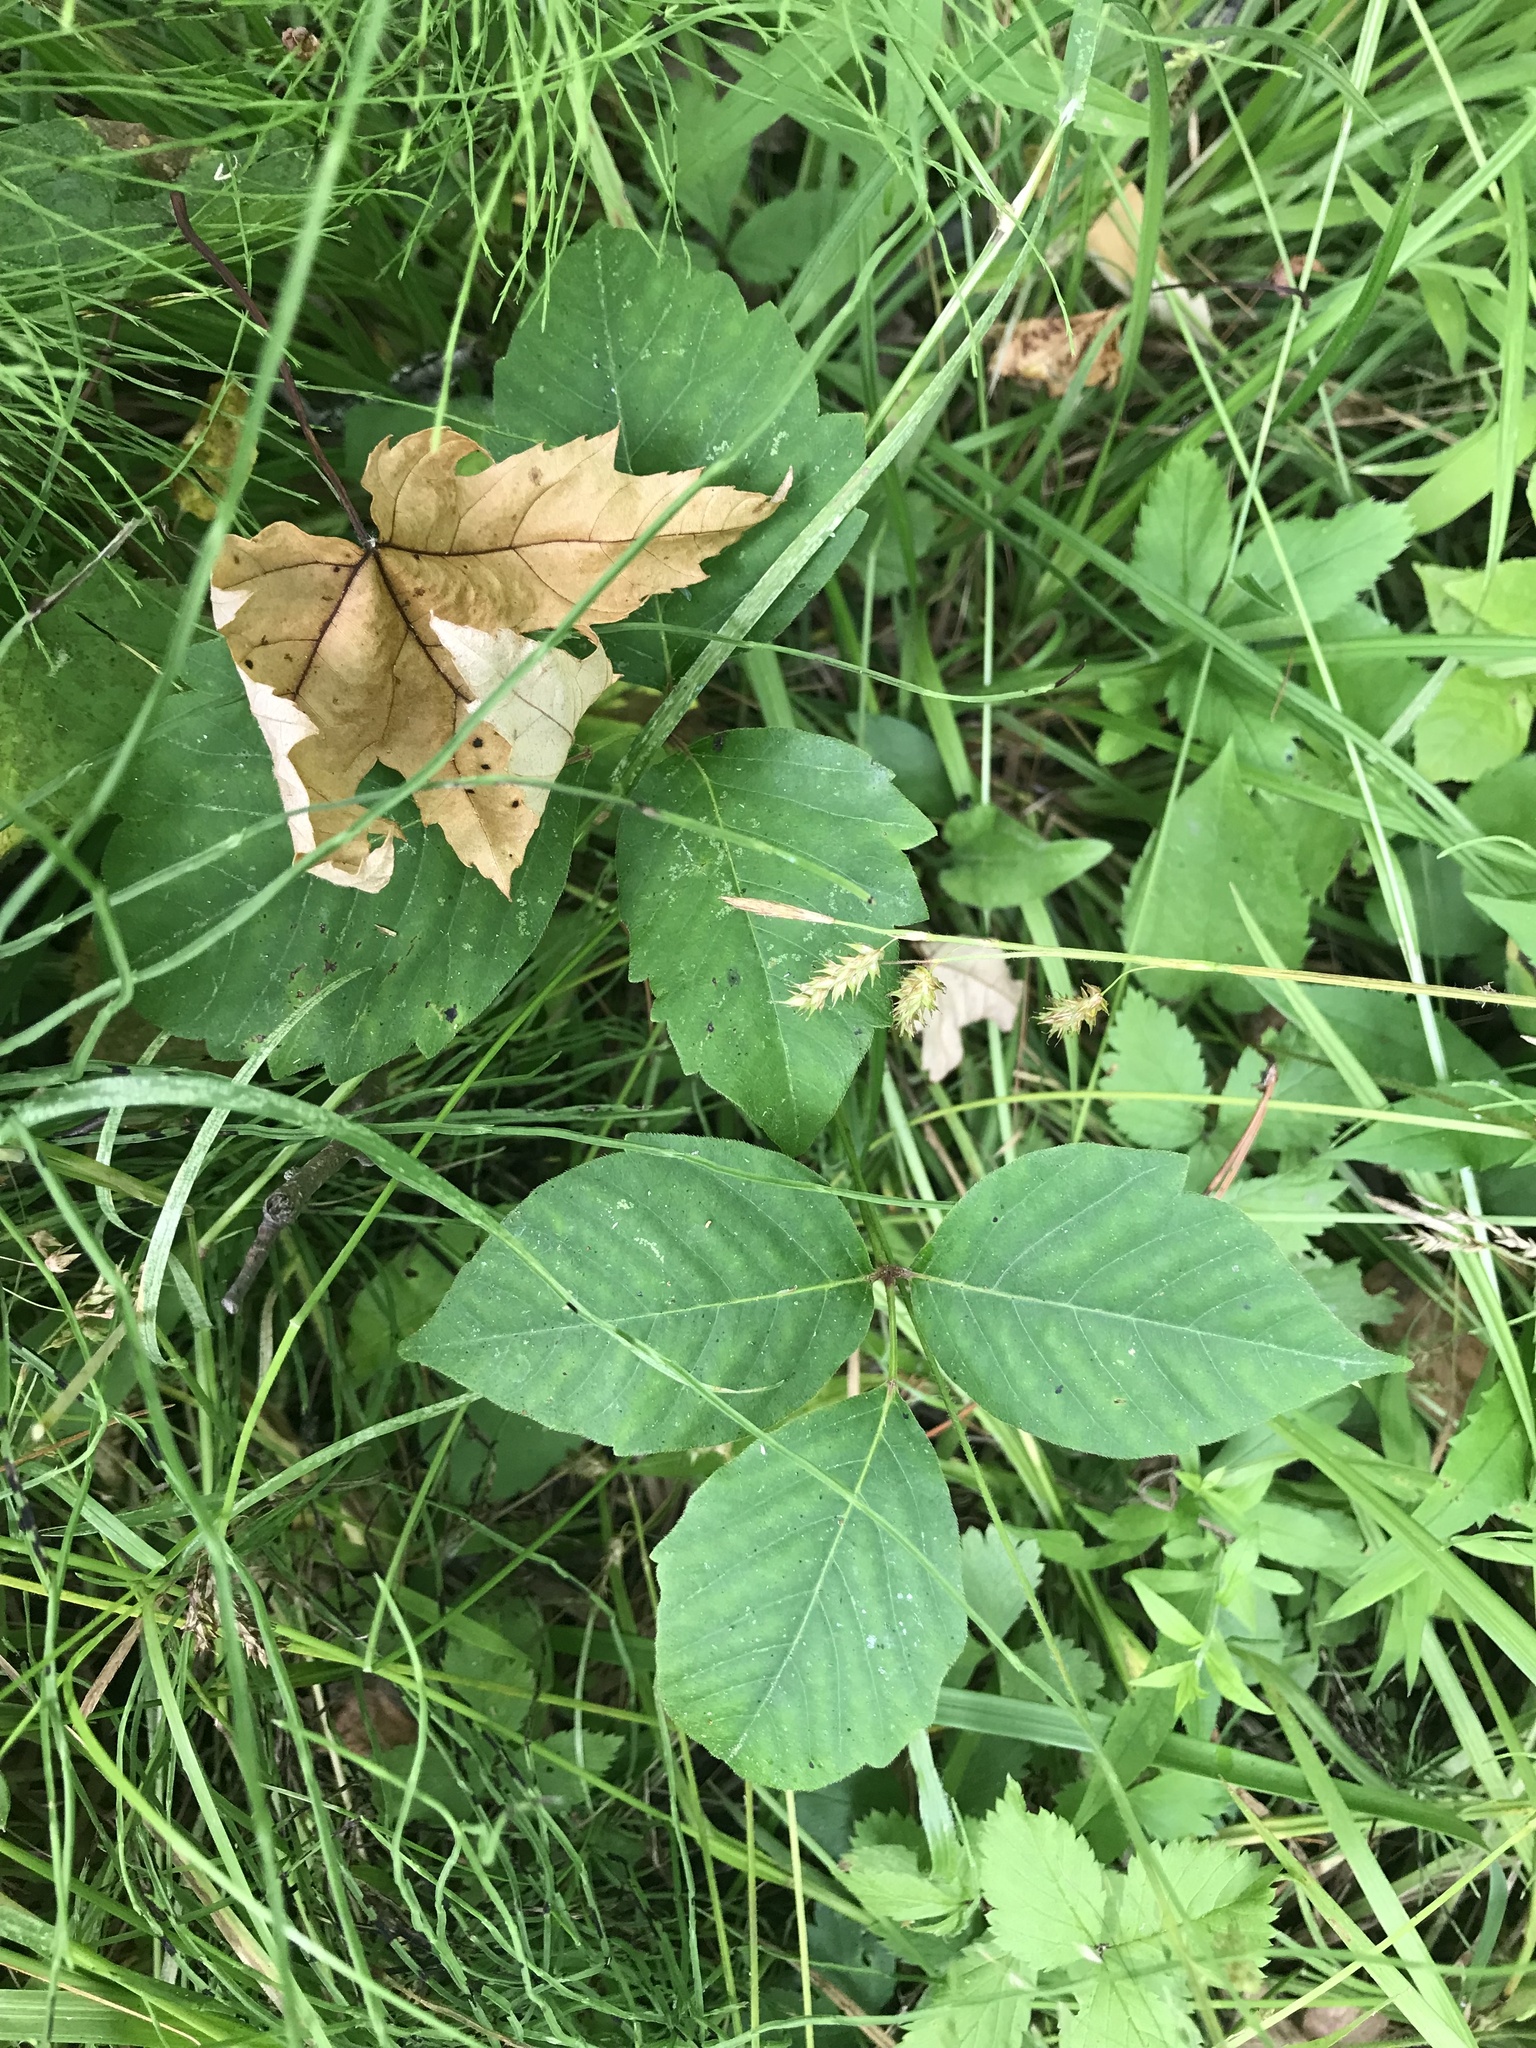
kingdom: Plantae
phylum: Tracheophyta
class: Magnoliopsida
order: Sapindales
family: Anacardiaceae
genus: Toxicodendron
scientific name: Toxicodendron rydbergii
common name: Rydberg's poison-ivy
